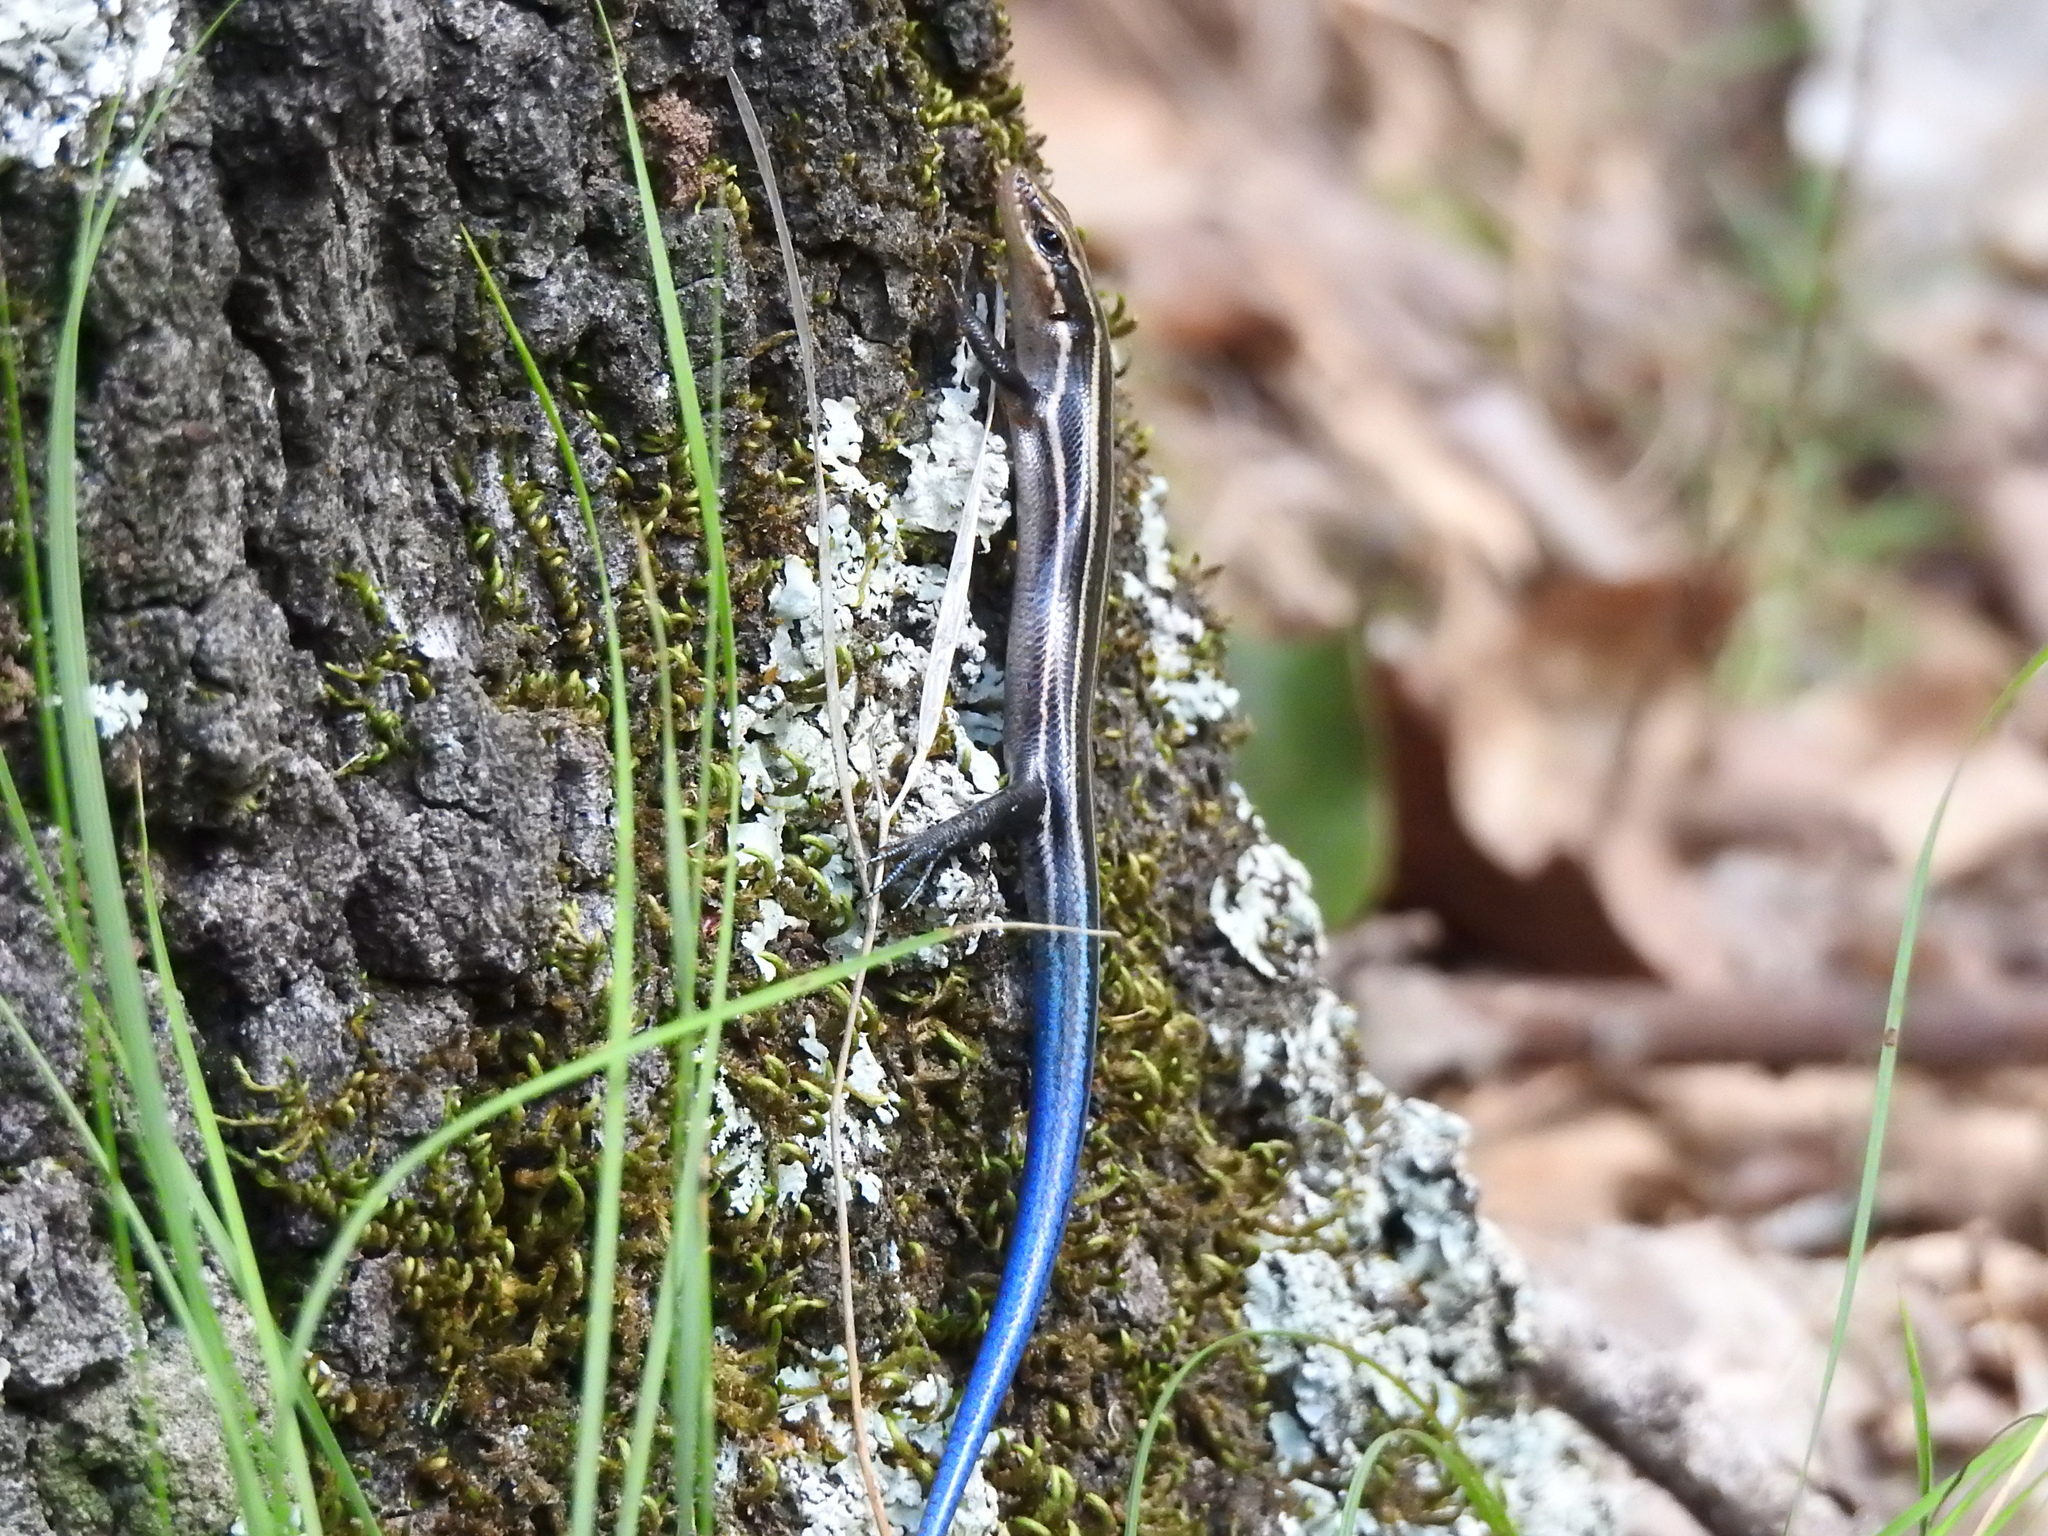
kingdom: Animalia
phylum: Chordata
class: Squamata
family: Scincidae
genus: Plestiodon
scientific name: Plestiodon fasciatus
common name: Five-lined skink
